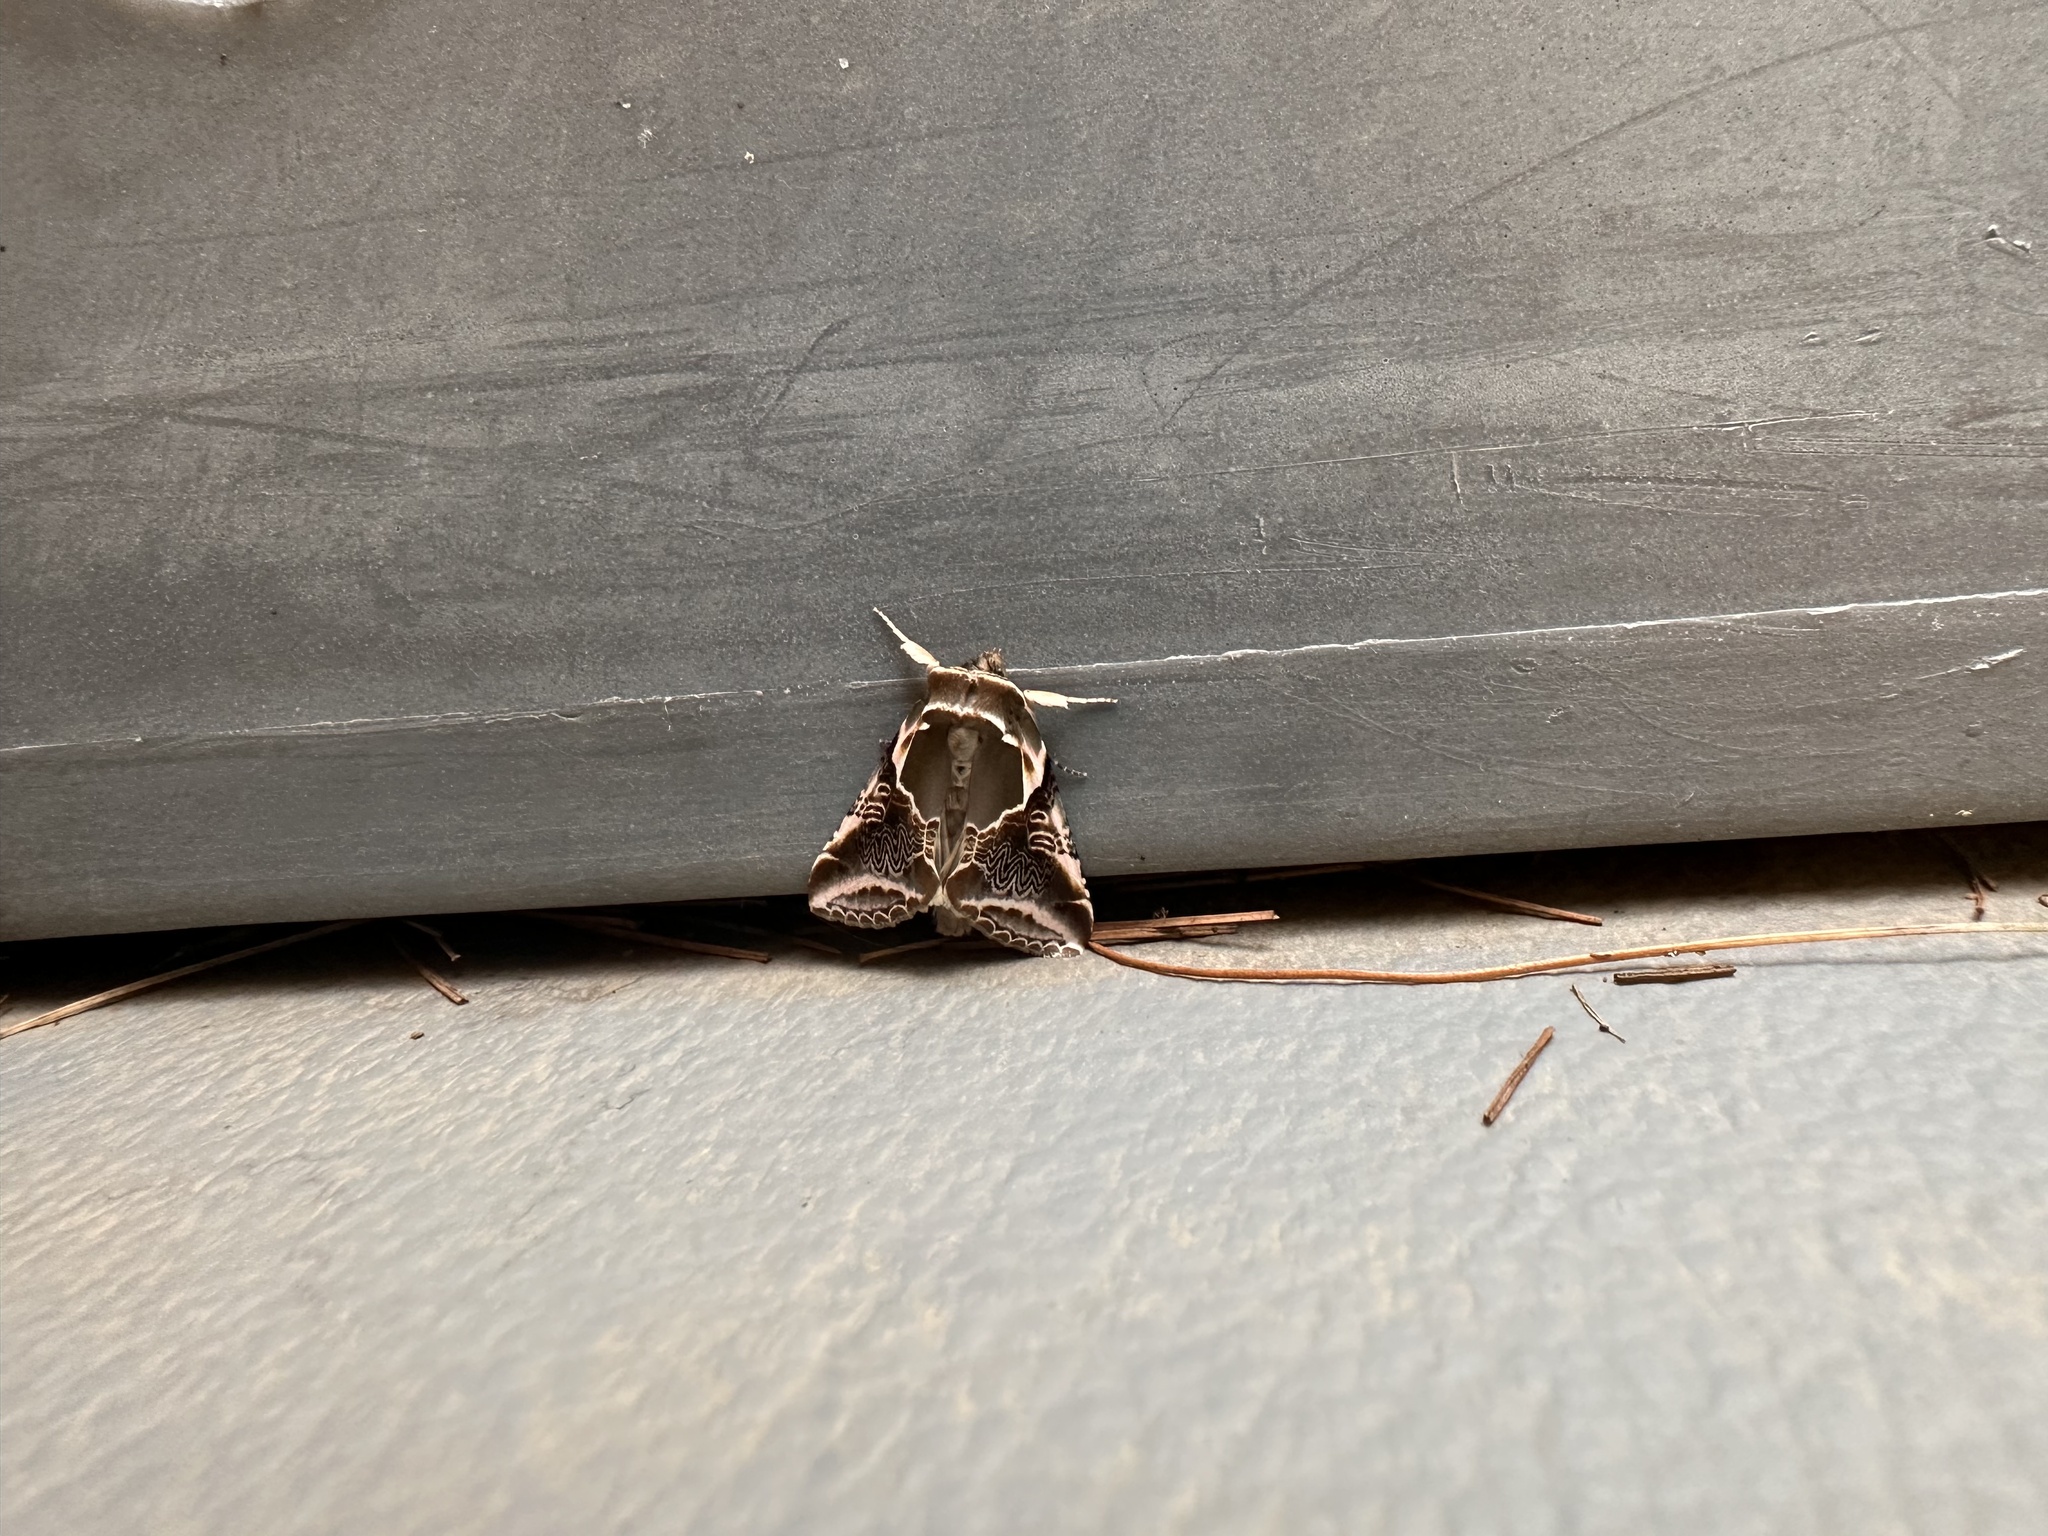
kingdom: Animalia
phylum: Arthropoda
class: Insecta
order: Lepidoptera
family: Drepanidae
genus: Habrosyne
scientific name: Habrosyne scripta
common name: Lettered habrosyne moth
